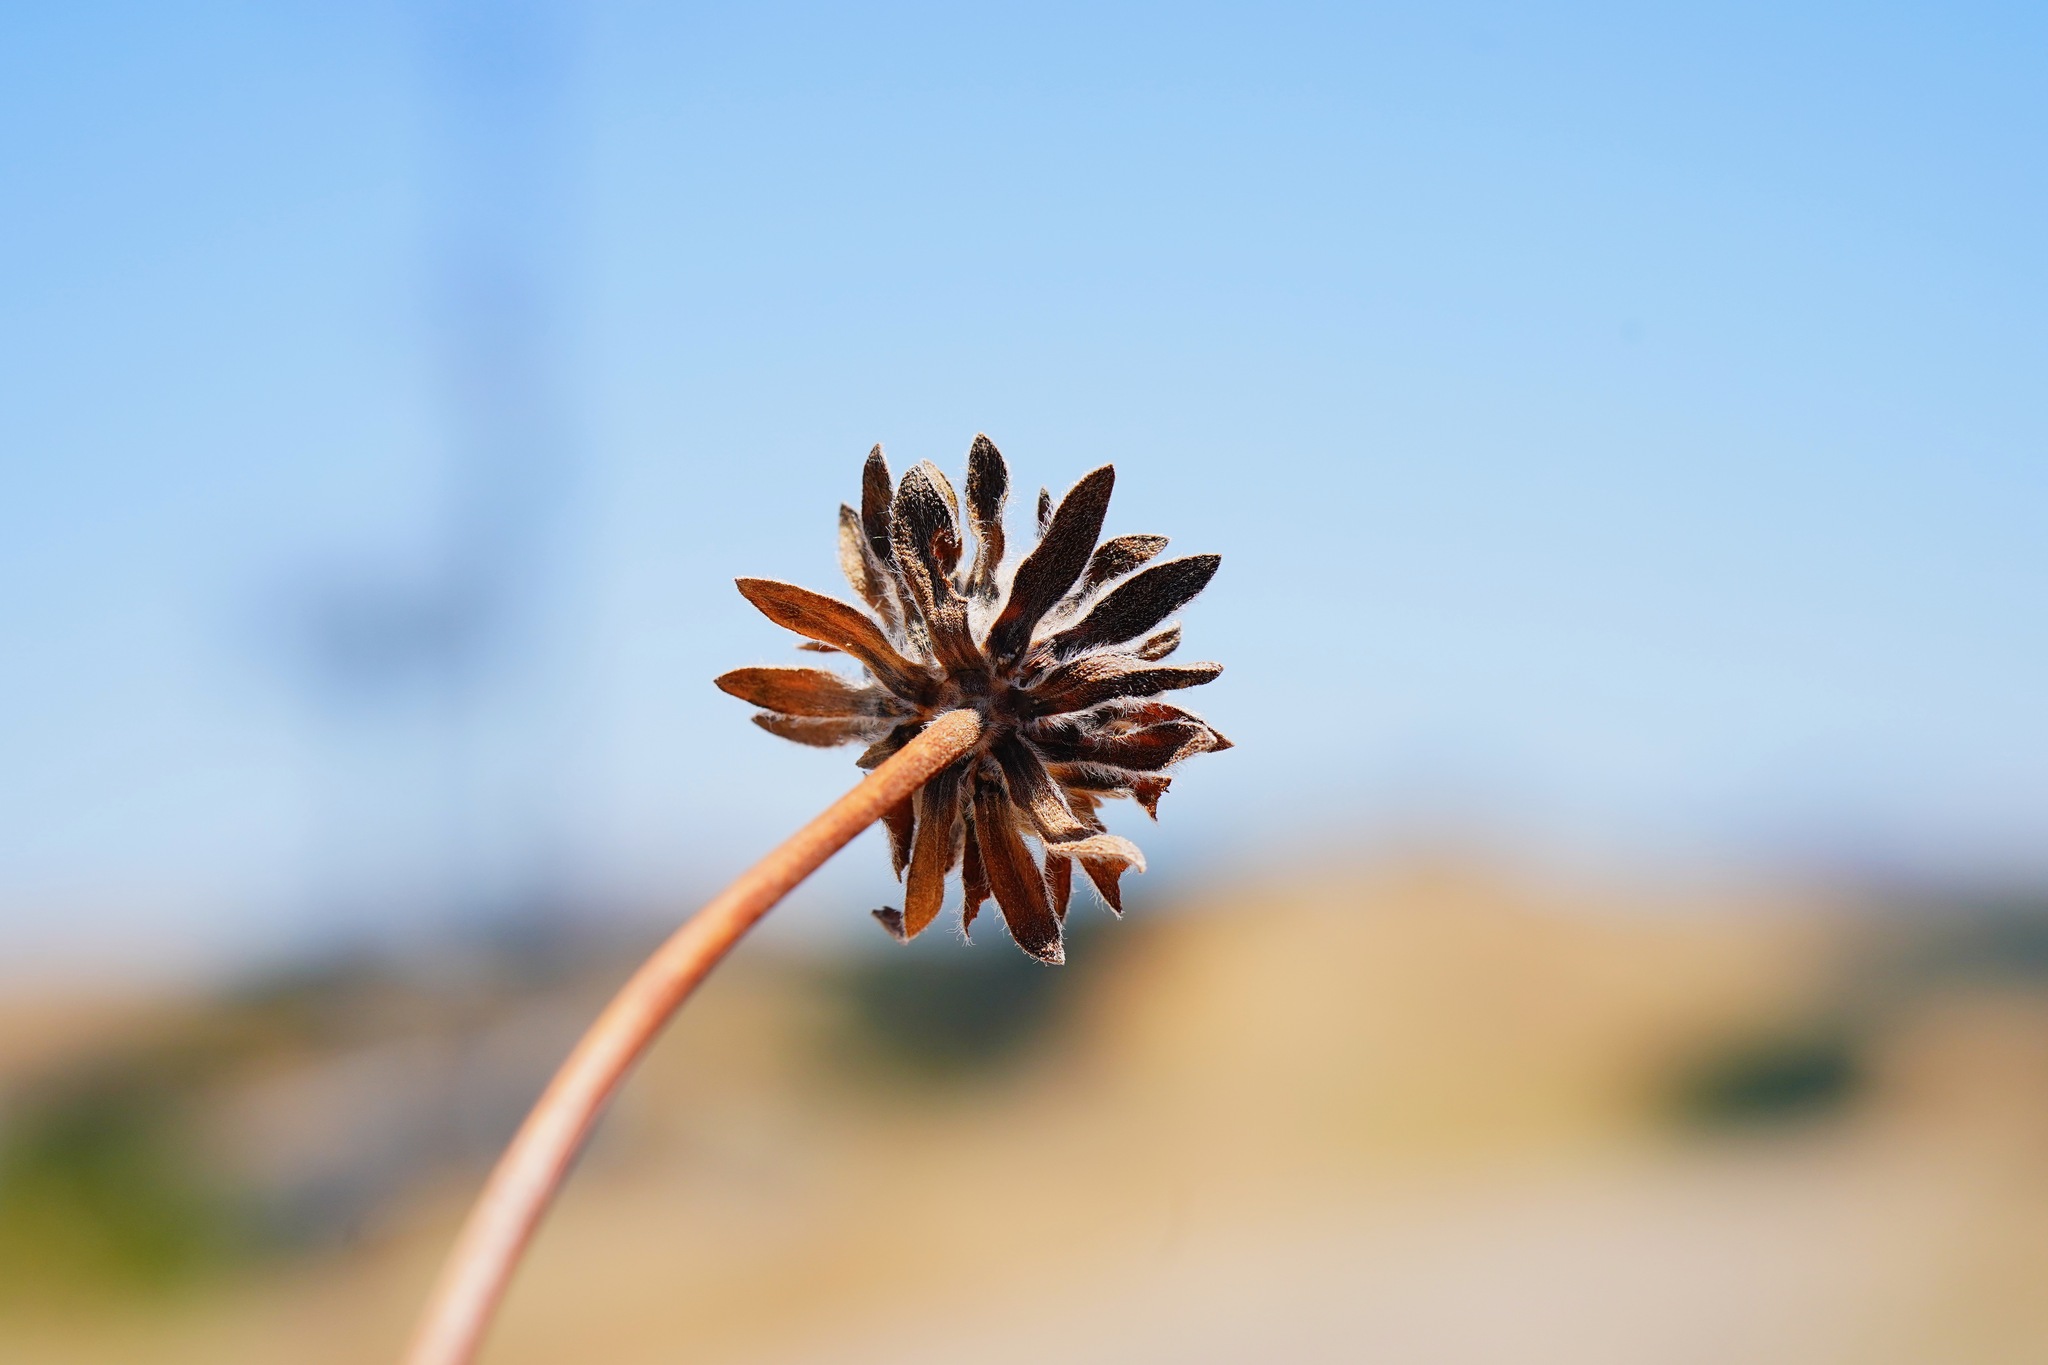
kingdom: Plantae
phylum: Tracheophyta
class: Magnoliopsida
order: Asterales
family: Asteraceae
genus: Wyethia
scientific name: Wyethia angustifolia
